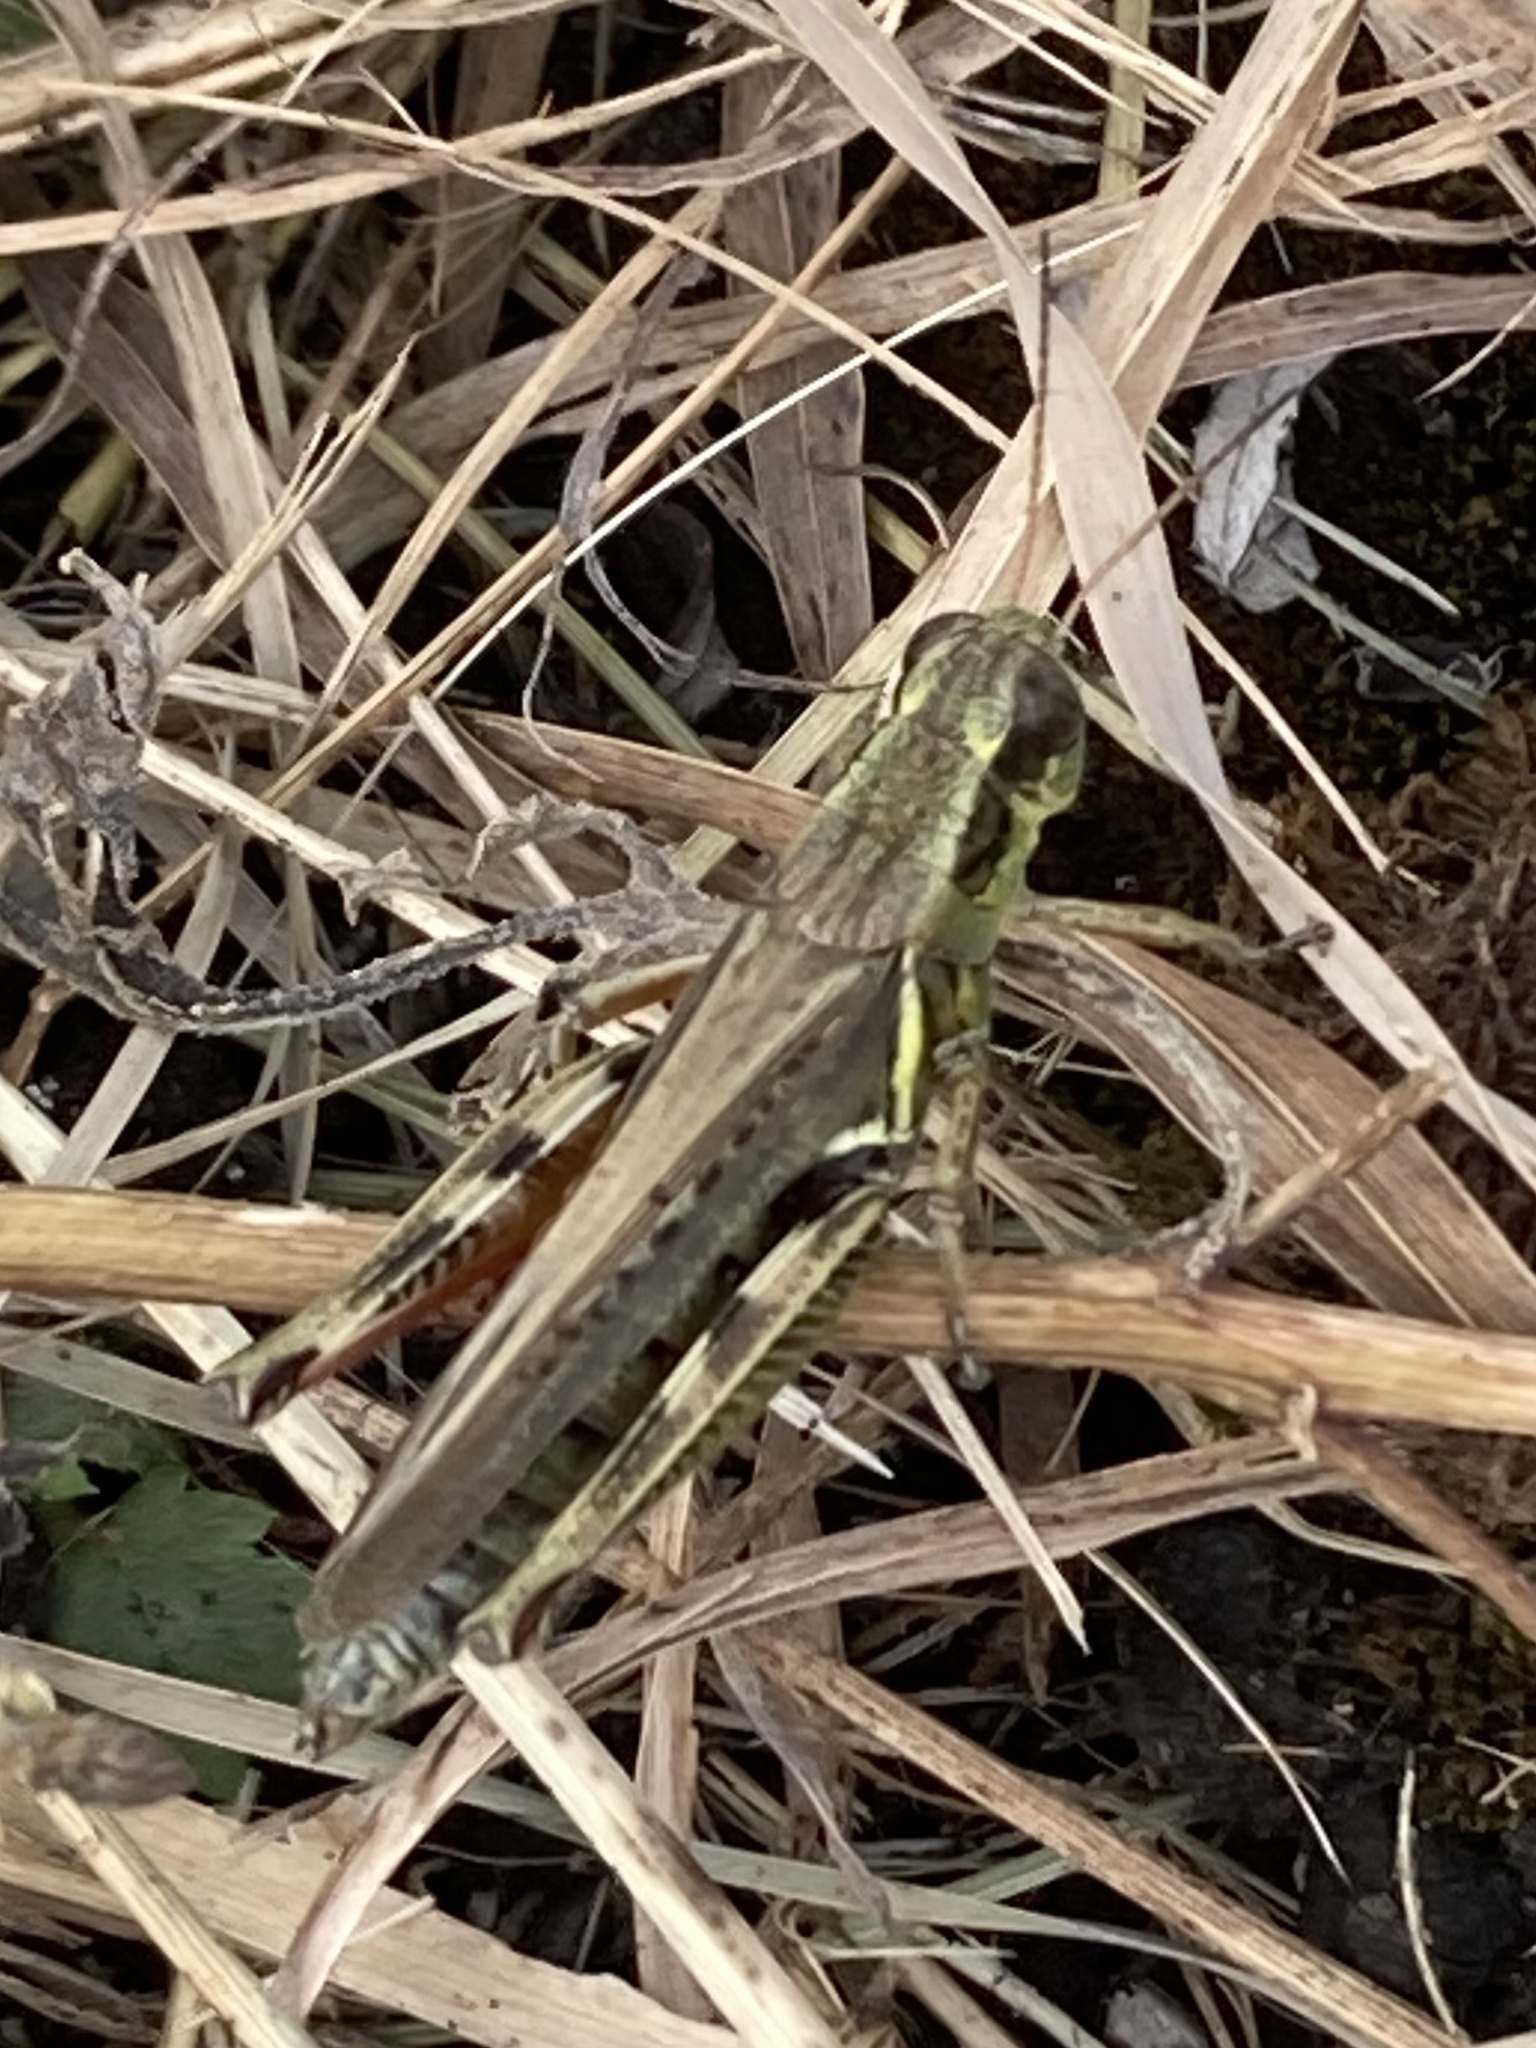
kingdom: Animalia
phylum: Arthropoda
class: Insecta
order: Orthoptera
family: Acrididae
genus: Melanoplus
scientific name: Melanoplus femurrubrum
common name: Red-legged grasshopper
